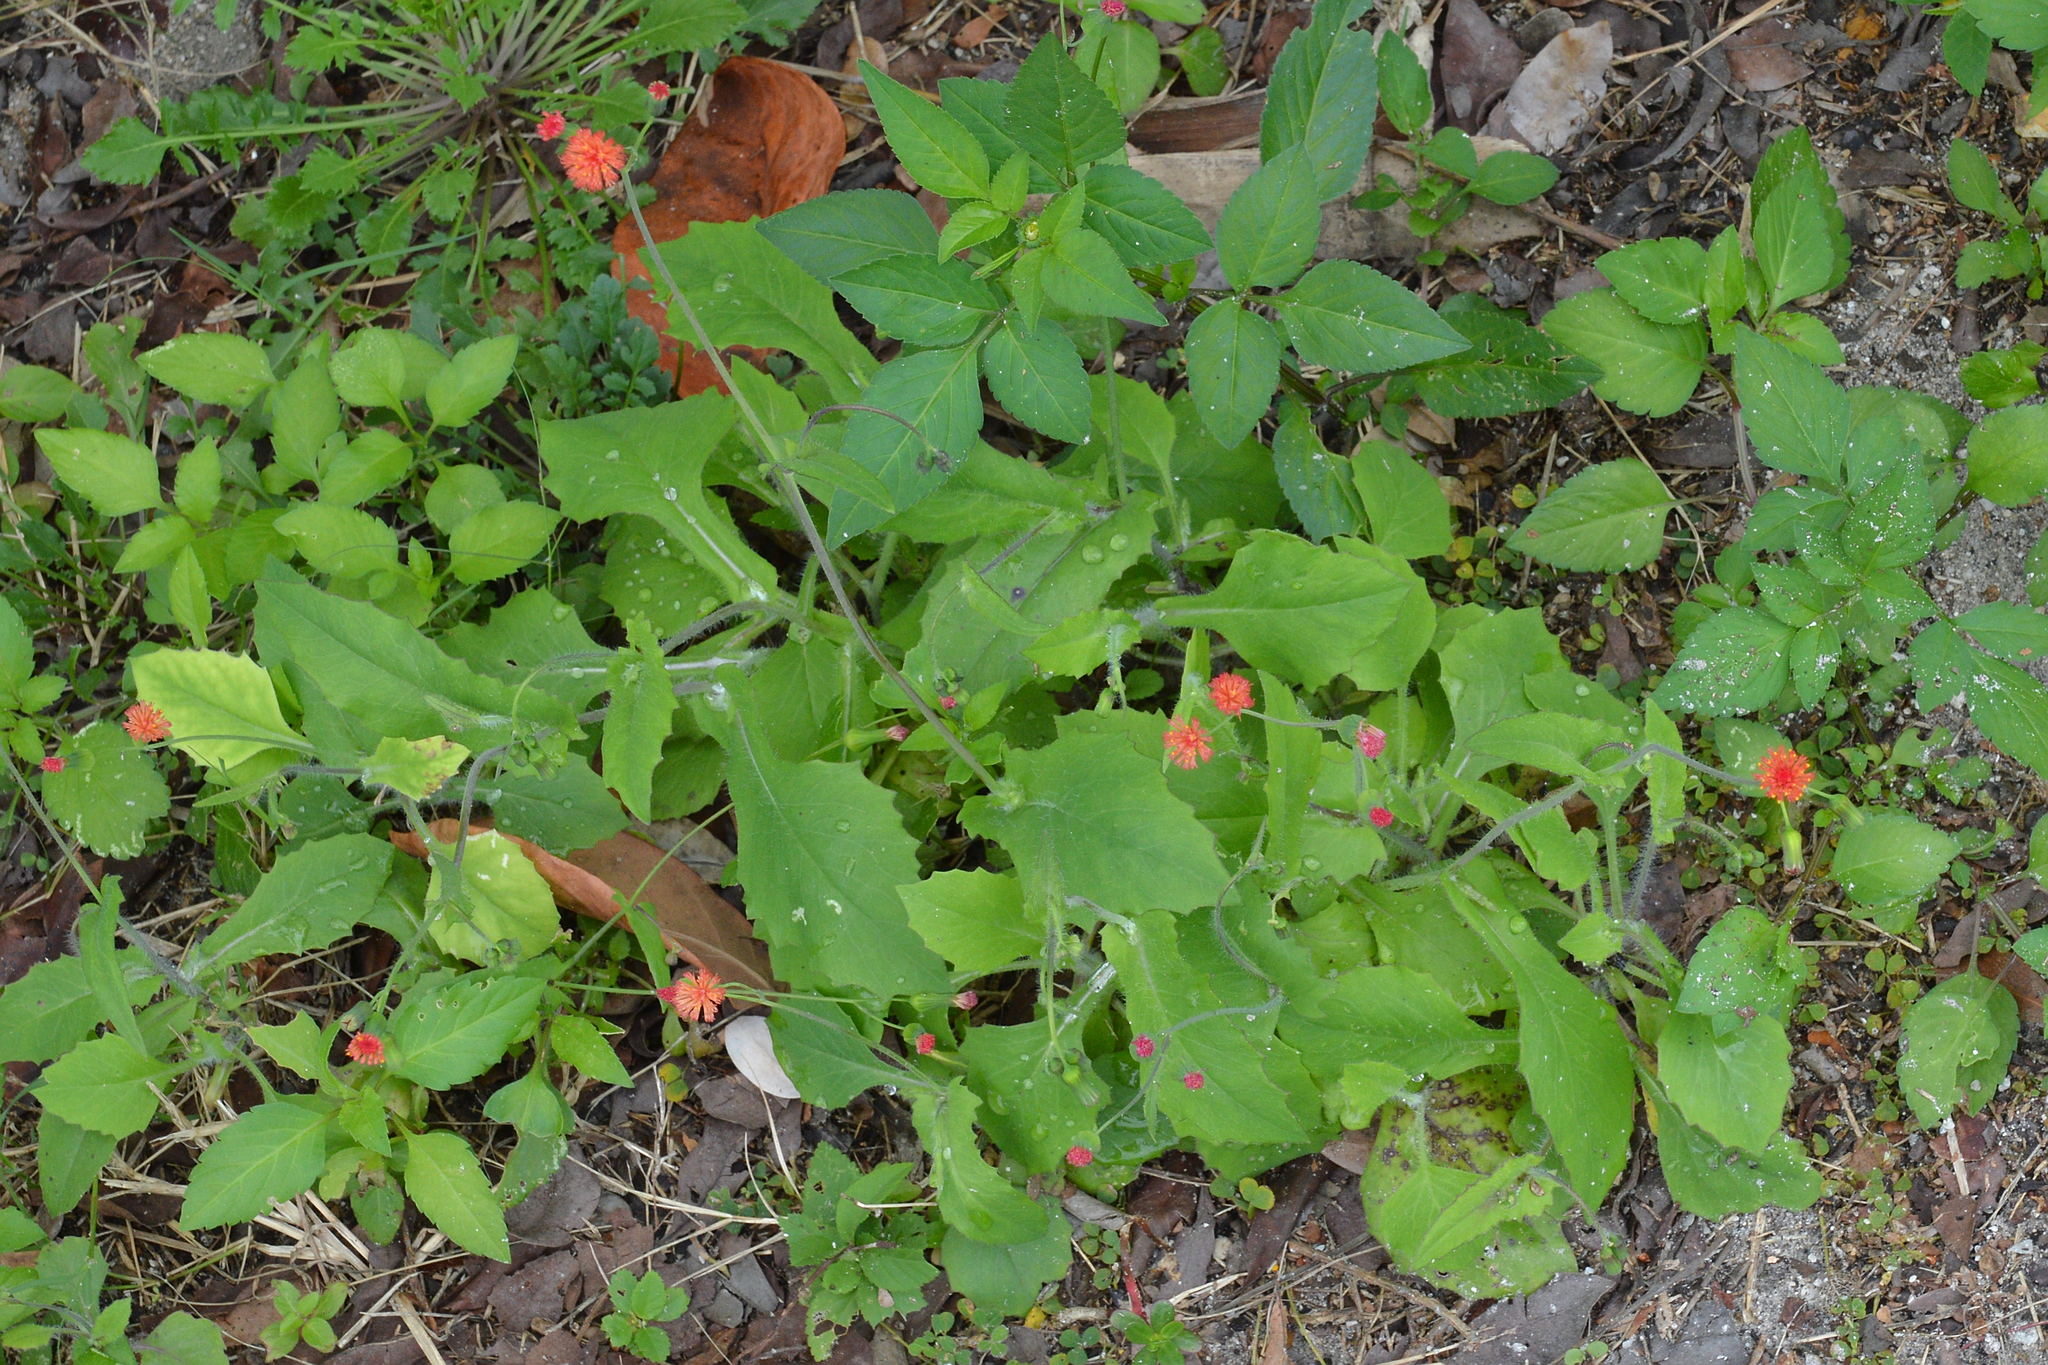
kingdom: Plantae
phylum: Tracheophyta
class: Magnoliopsida
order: Asterales
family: Asteraceae
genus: Emilia
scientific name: Emilia fosbergii
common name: Florida tasselflower
